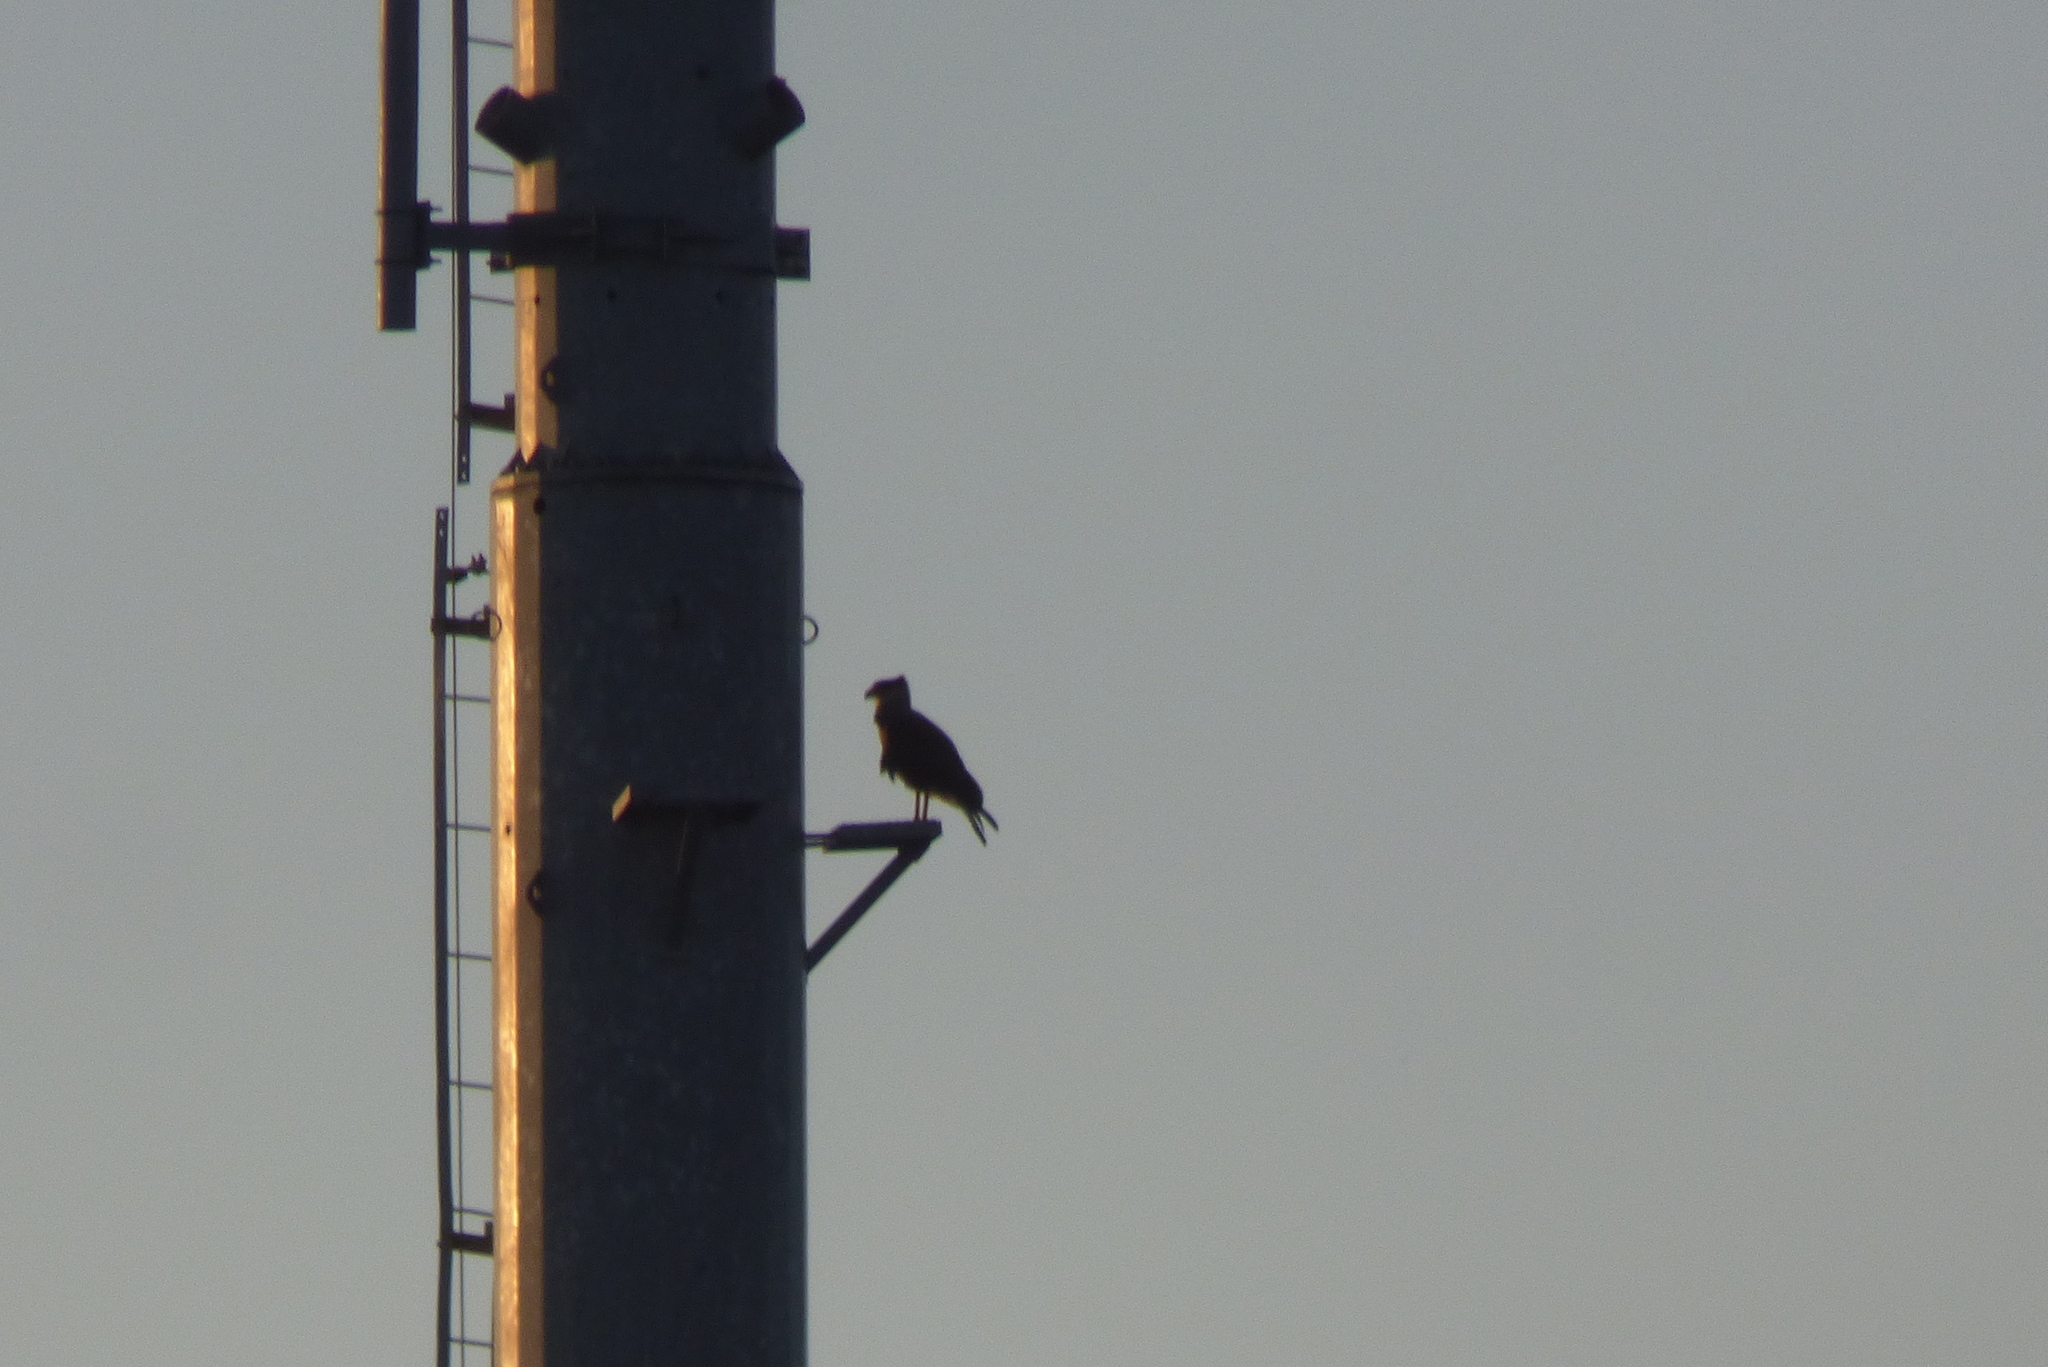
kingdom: Animalia
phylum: Chordata
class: Aves
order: Falconiformes
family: Falconidae
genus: Caracara
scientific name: Caracara plancus
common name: Southern caracara
